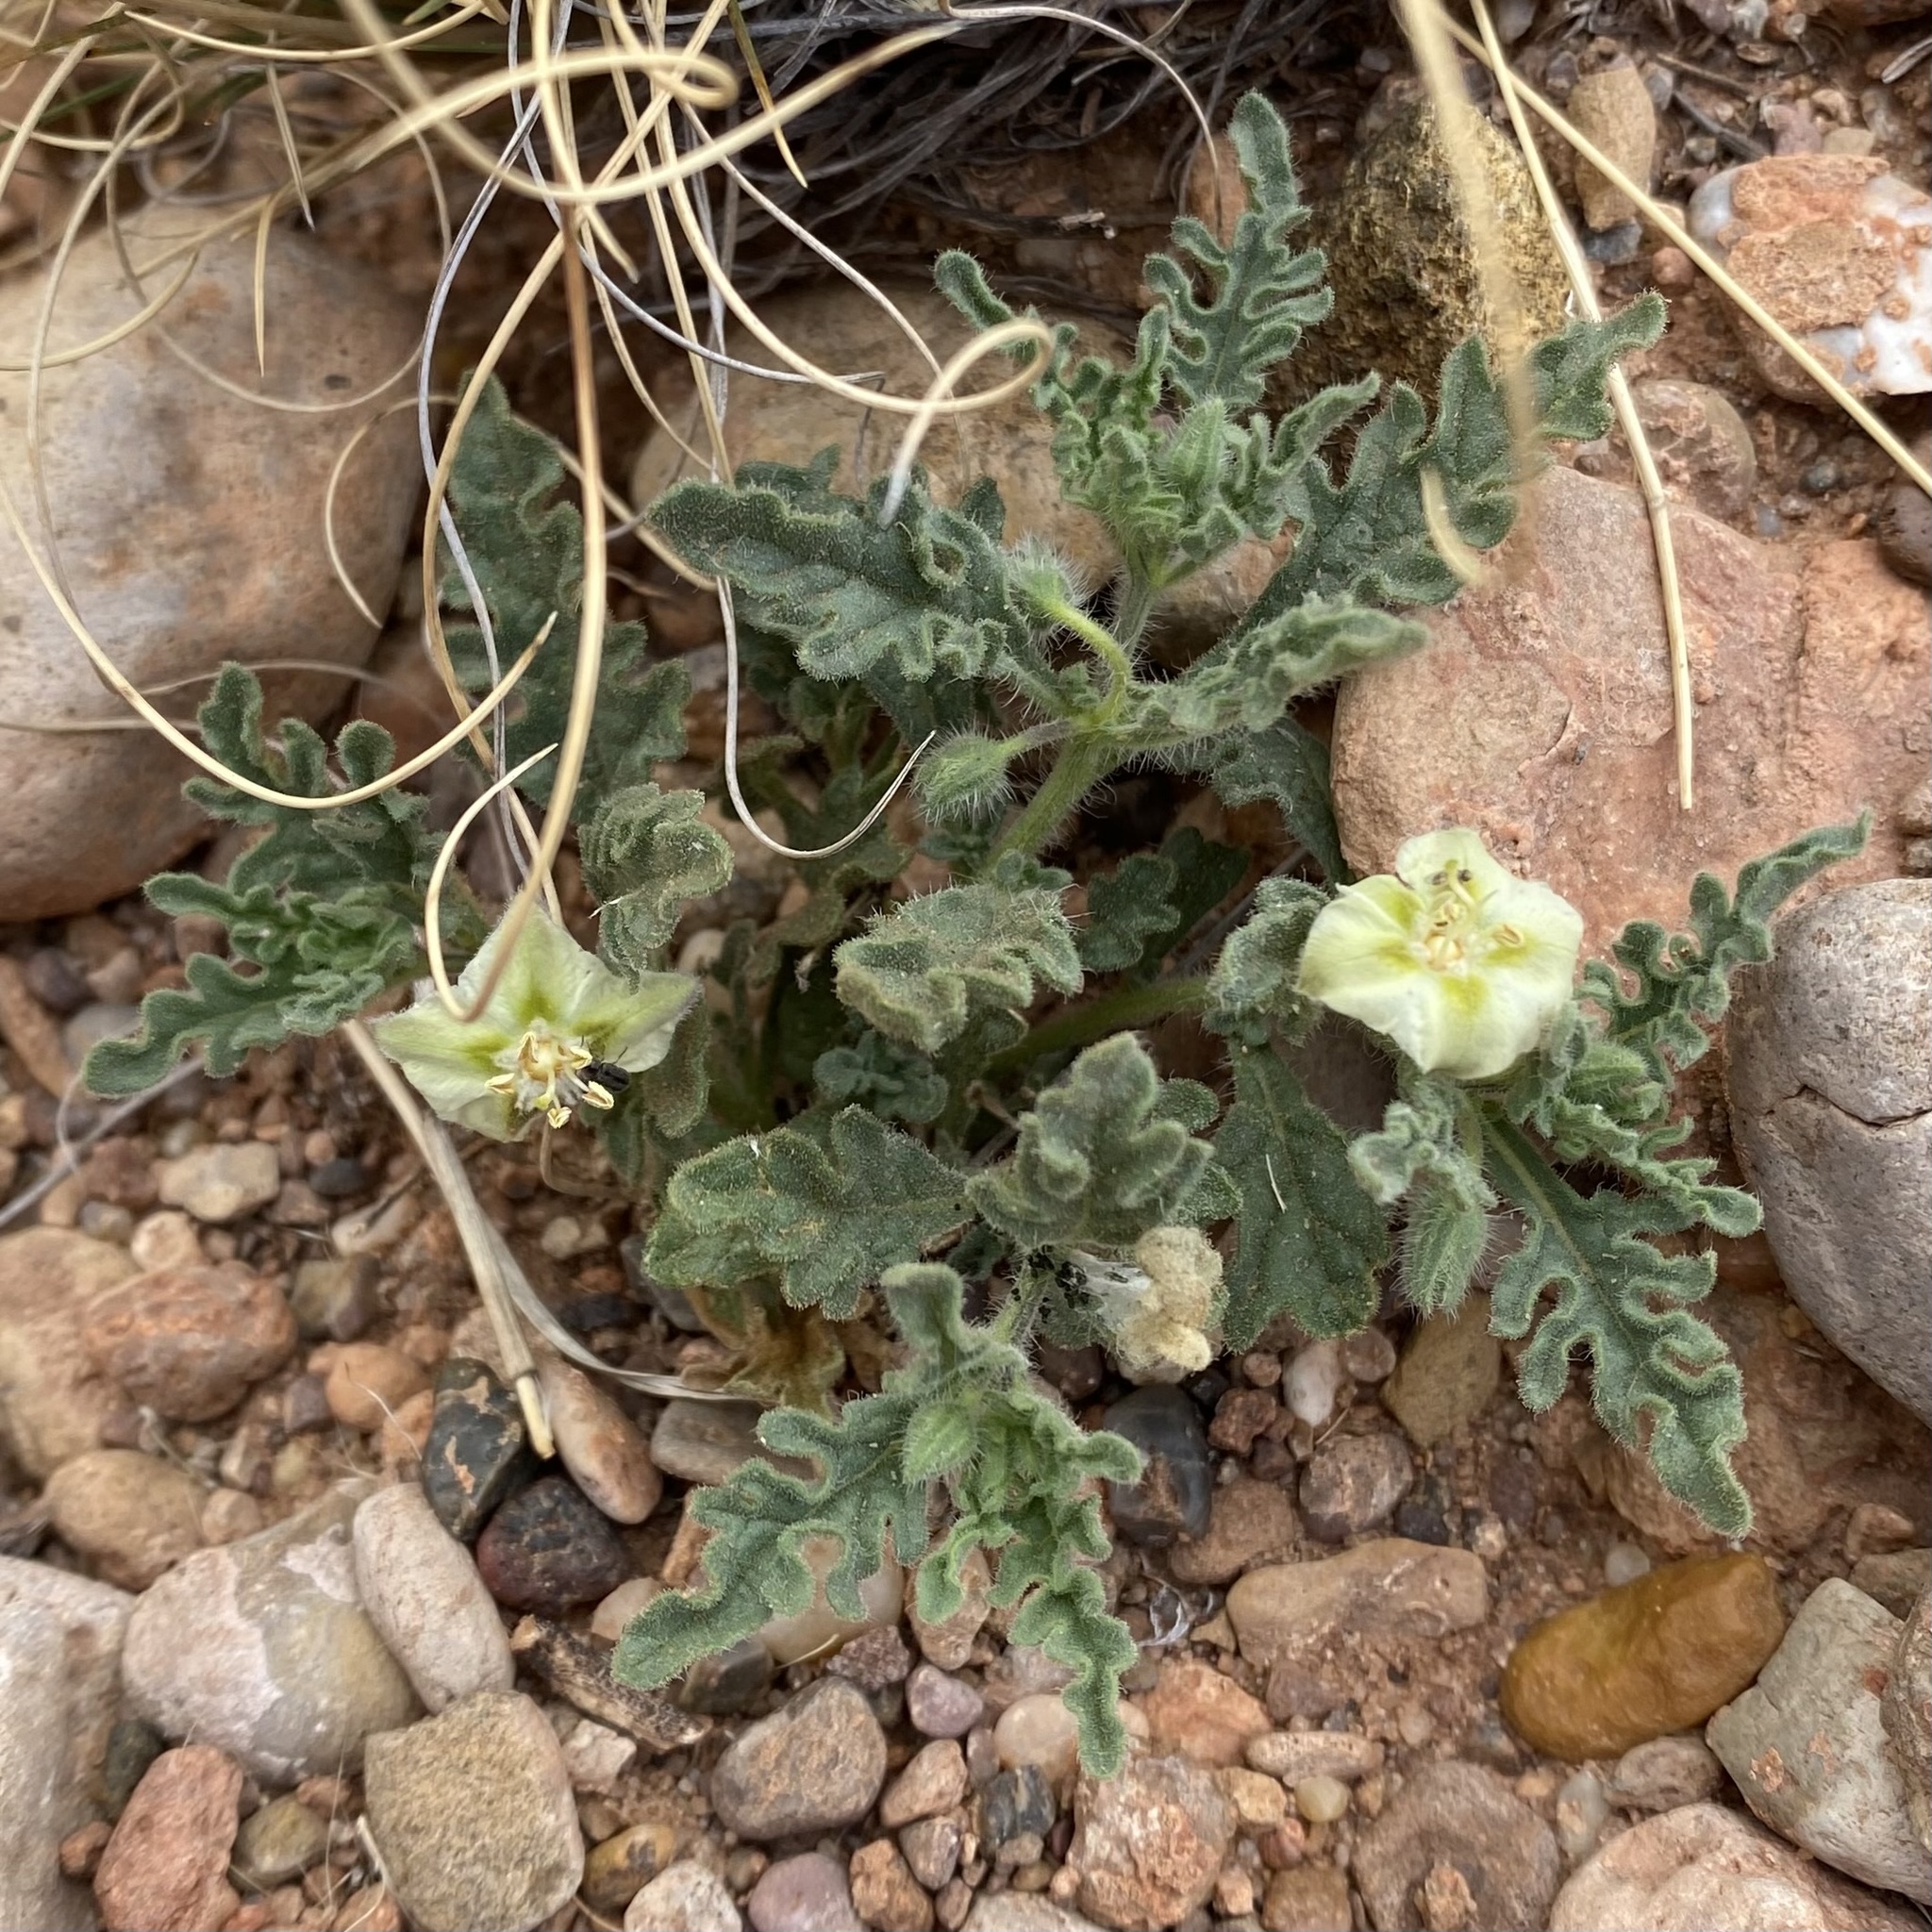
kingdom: Plantae
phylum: Tracheophyta
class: Magnoliopsida
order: Solanales
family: Solanaceae
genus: Chamaesaracha
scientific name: Chamaesaracha coniodes
